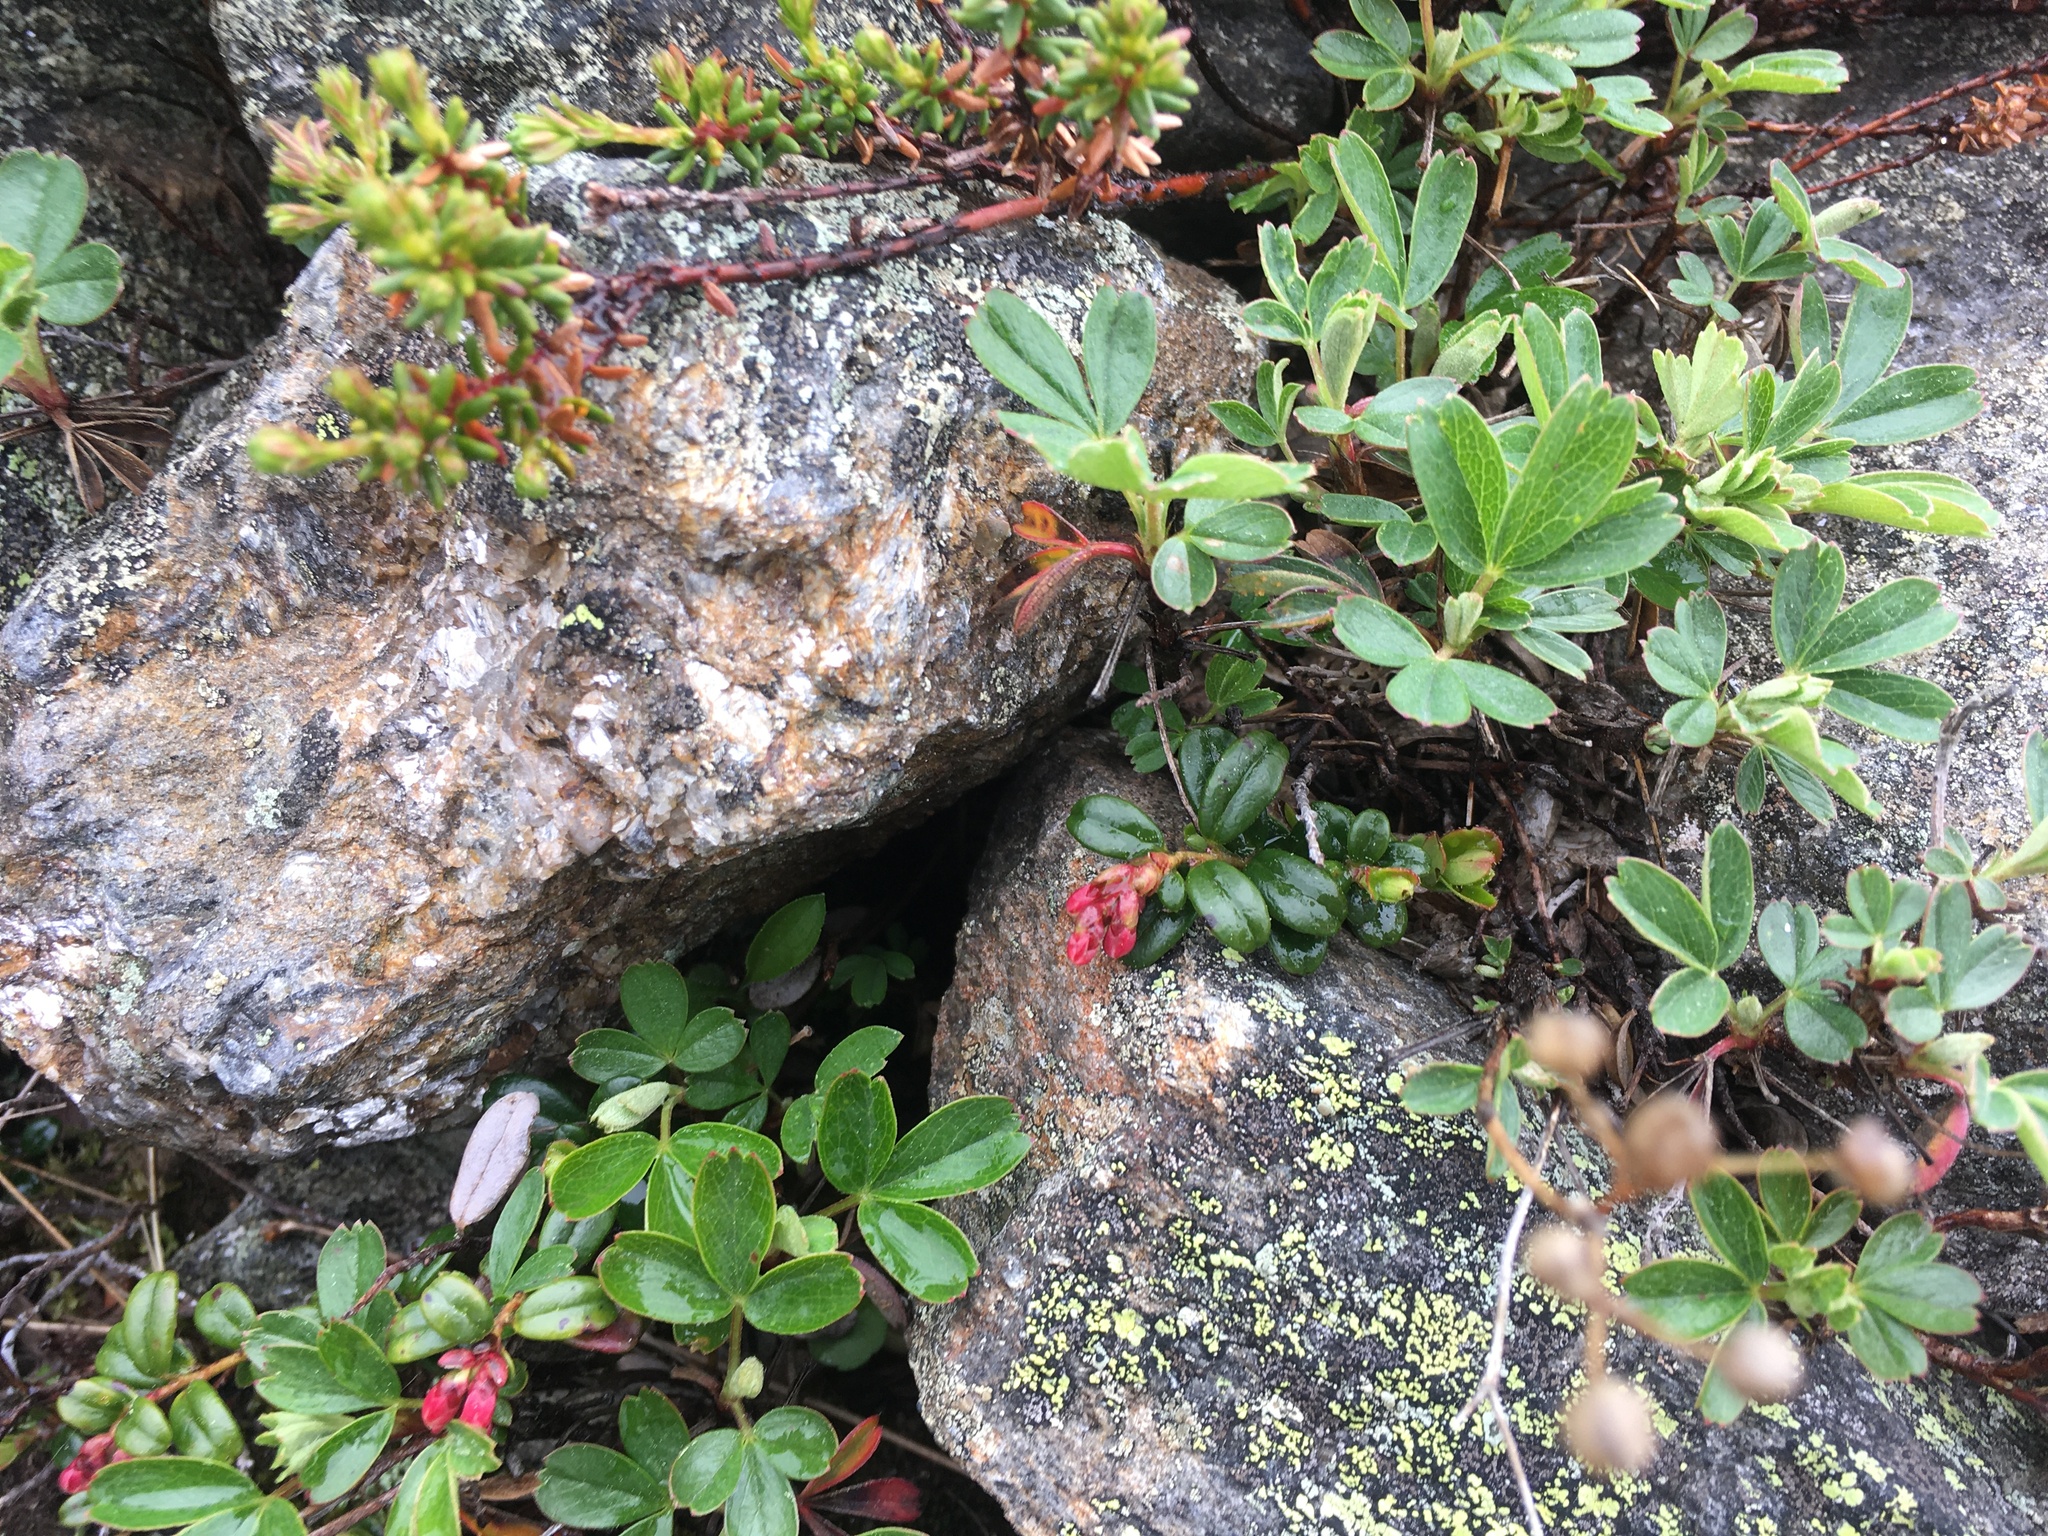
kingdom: Plantae
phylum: Tracheophyta
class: Magnoliopsida
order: Rosales
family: Rosaceae
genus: Sibbaldia
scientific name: Sibbaldia tridentata
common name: Three-toothed cinquefoil
